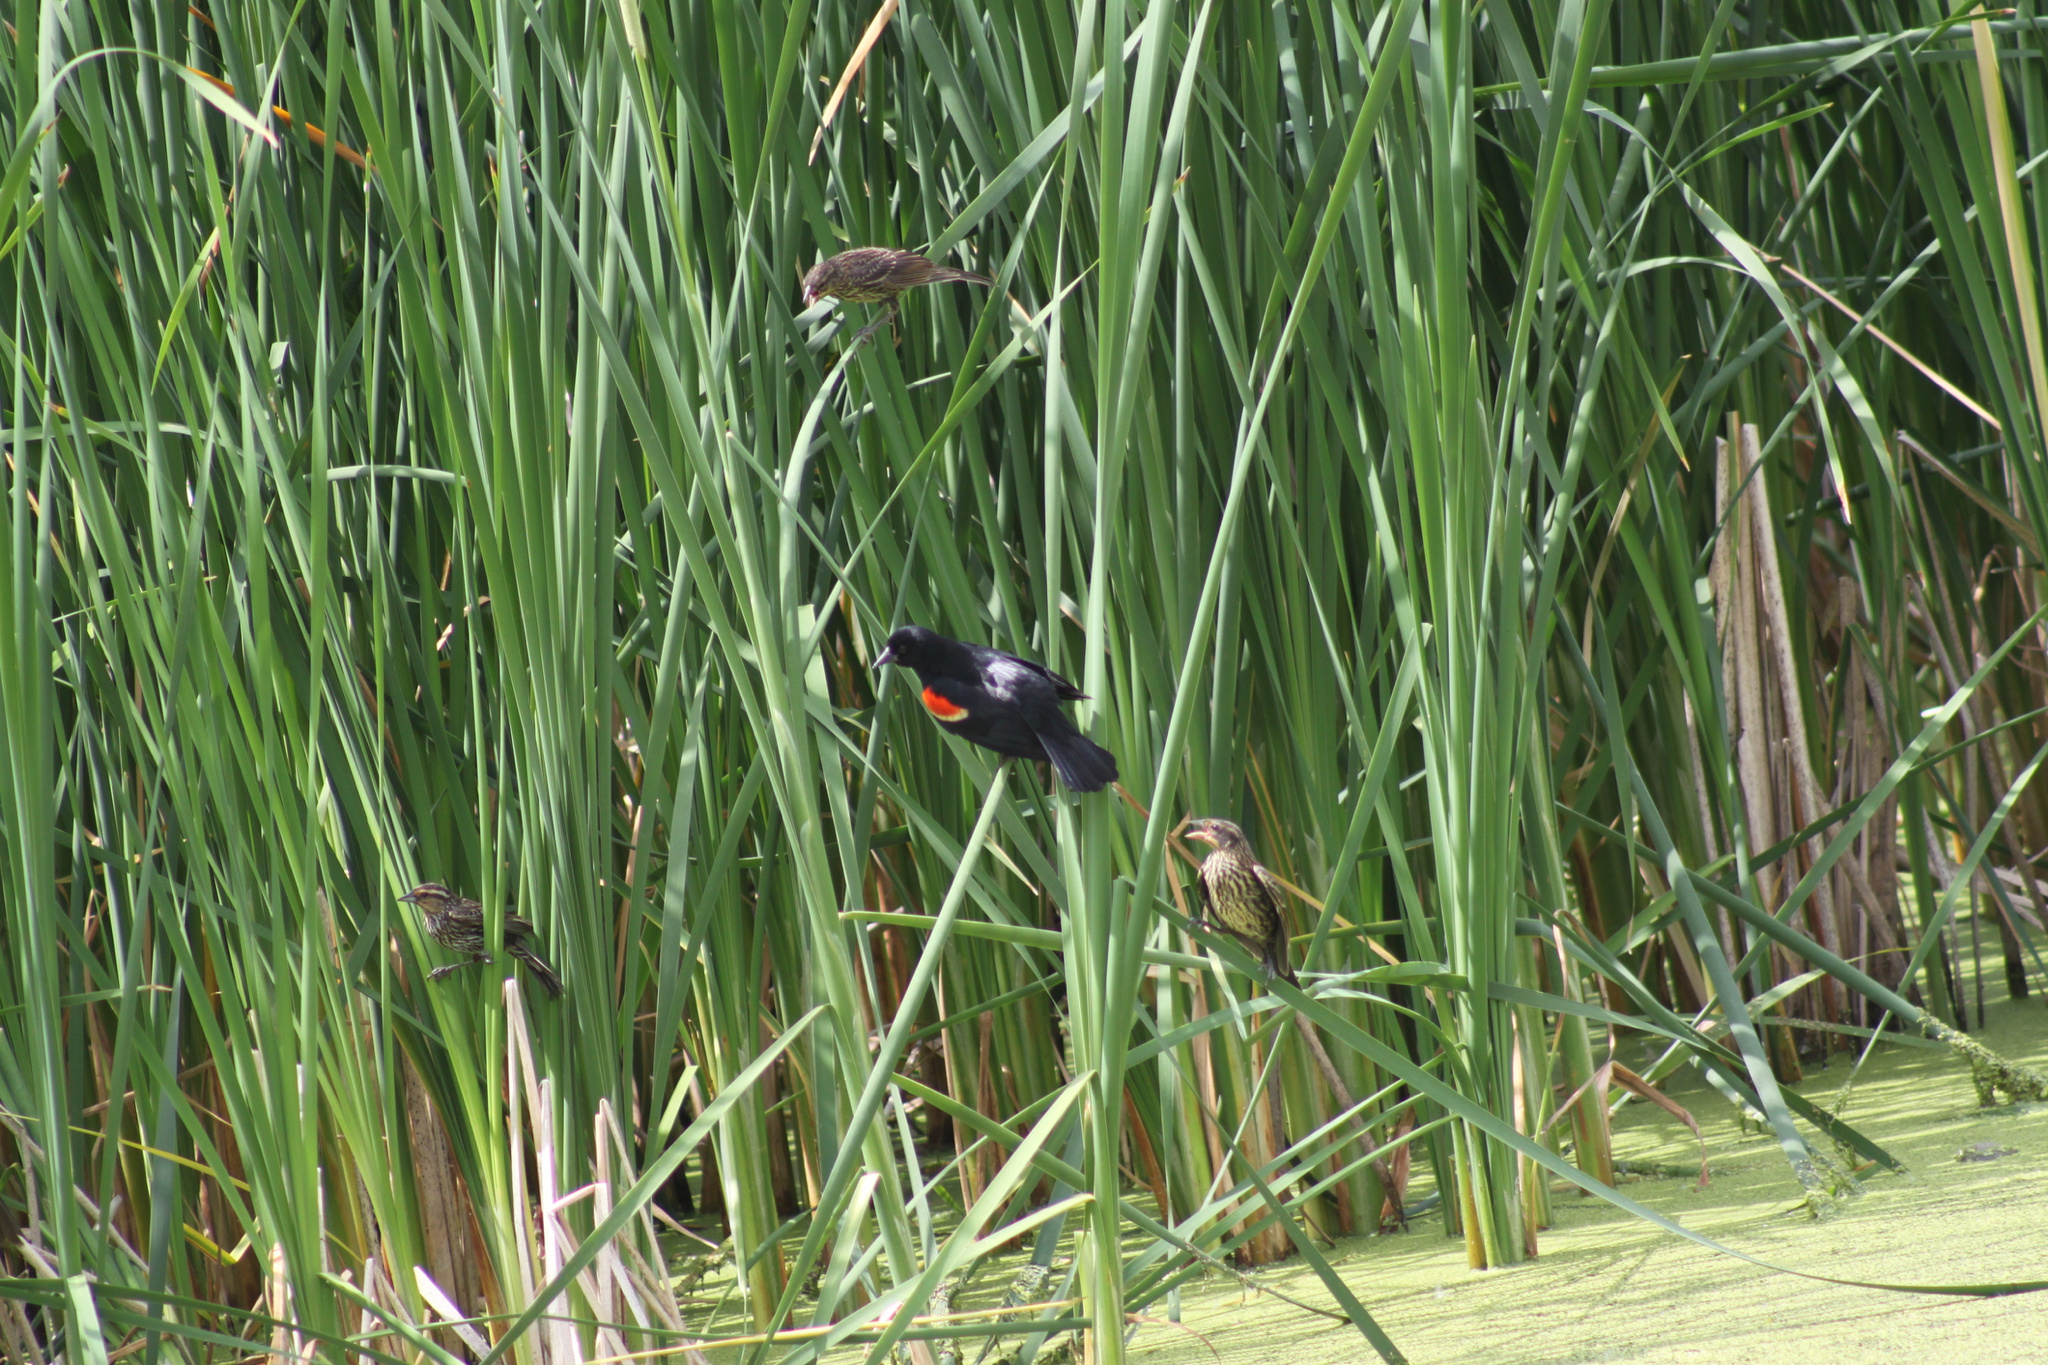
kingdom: Animalia
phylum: Chordata
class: Aves
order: Passeriformes
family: Icteridae
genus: Agelaius
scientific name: Agelaius phoeniceus
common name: Red-winged blackbird
